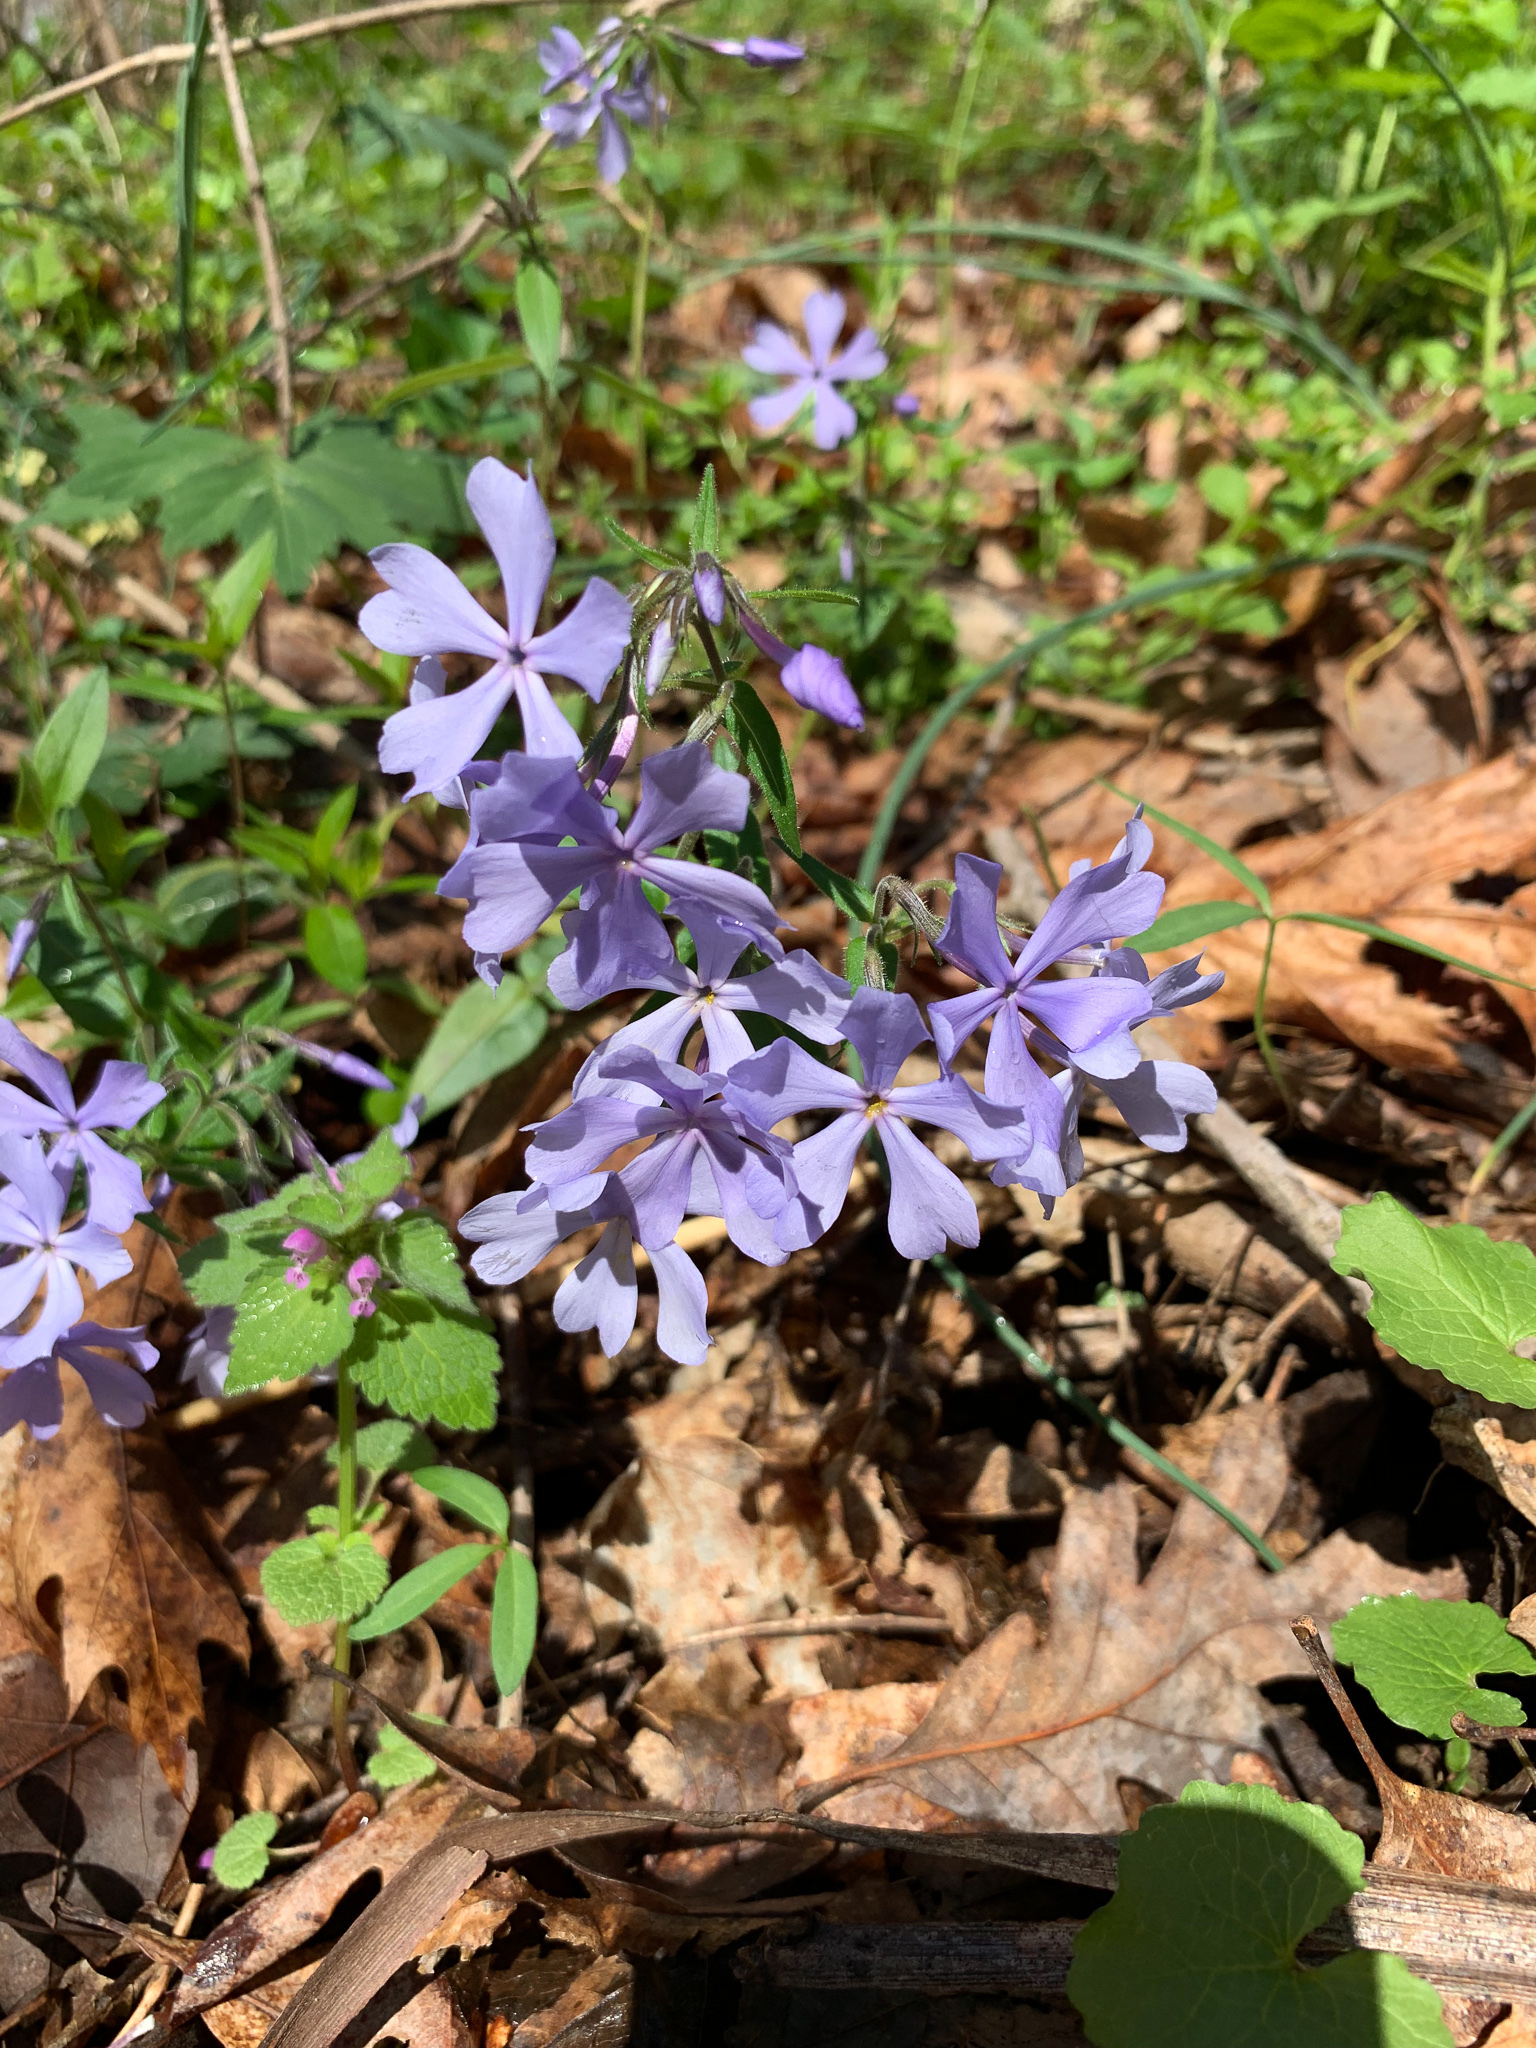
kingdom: Plantae
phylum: Tracheophyta
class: Magnoliopsida
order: Ericales
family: Polemoniaceae
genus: Phlox
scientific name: Phlox divaricata
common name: Blue phlox
